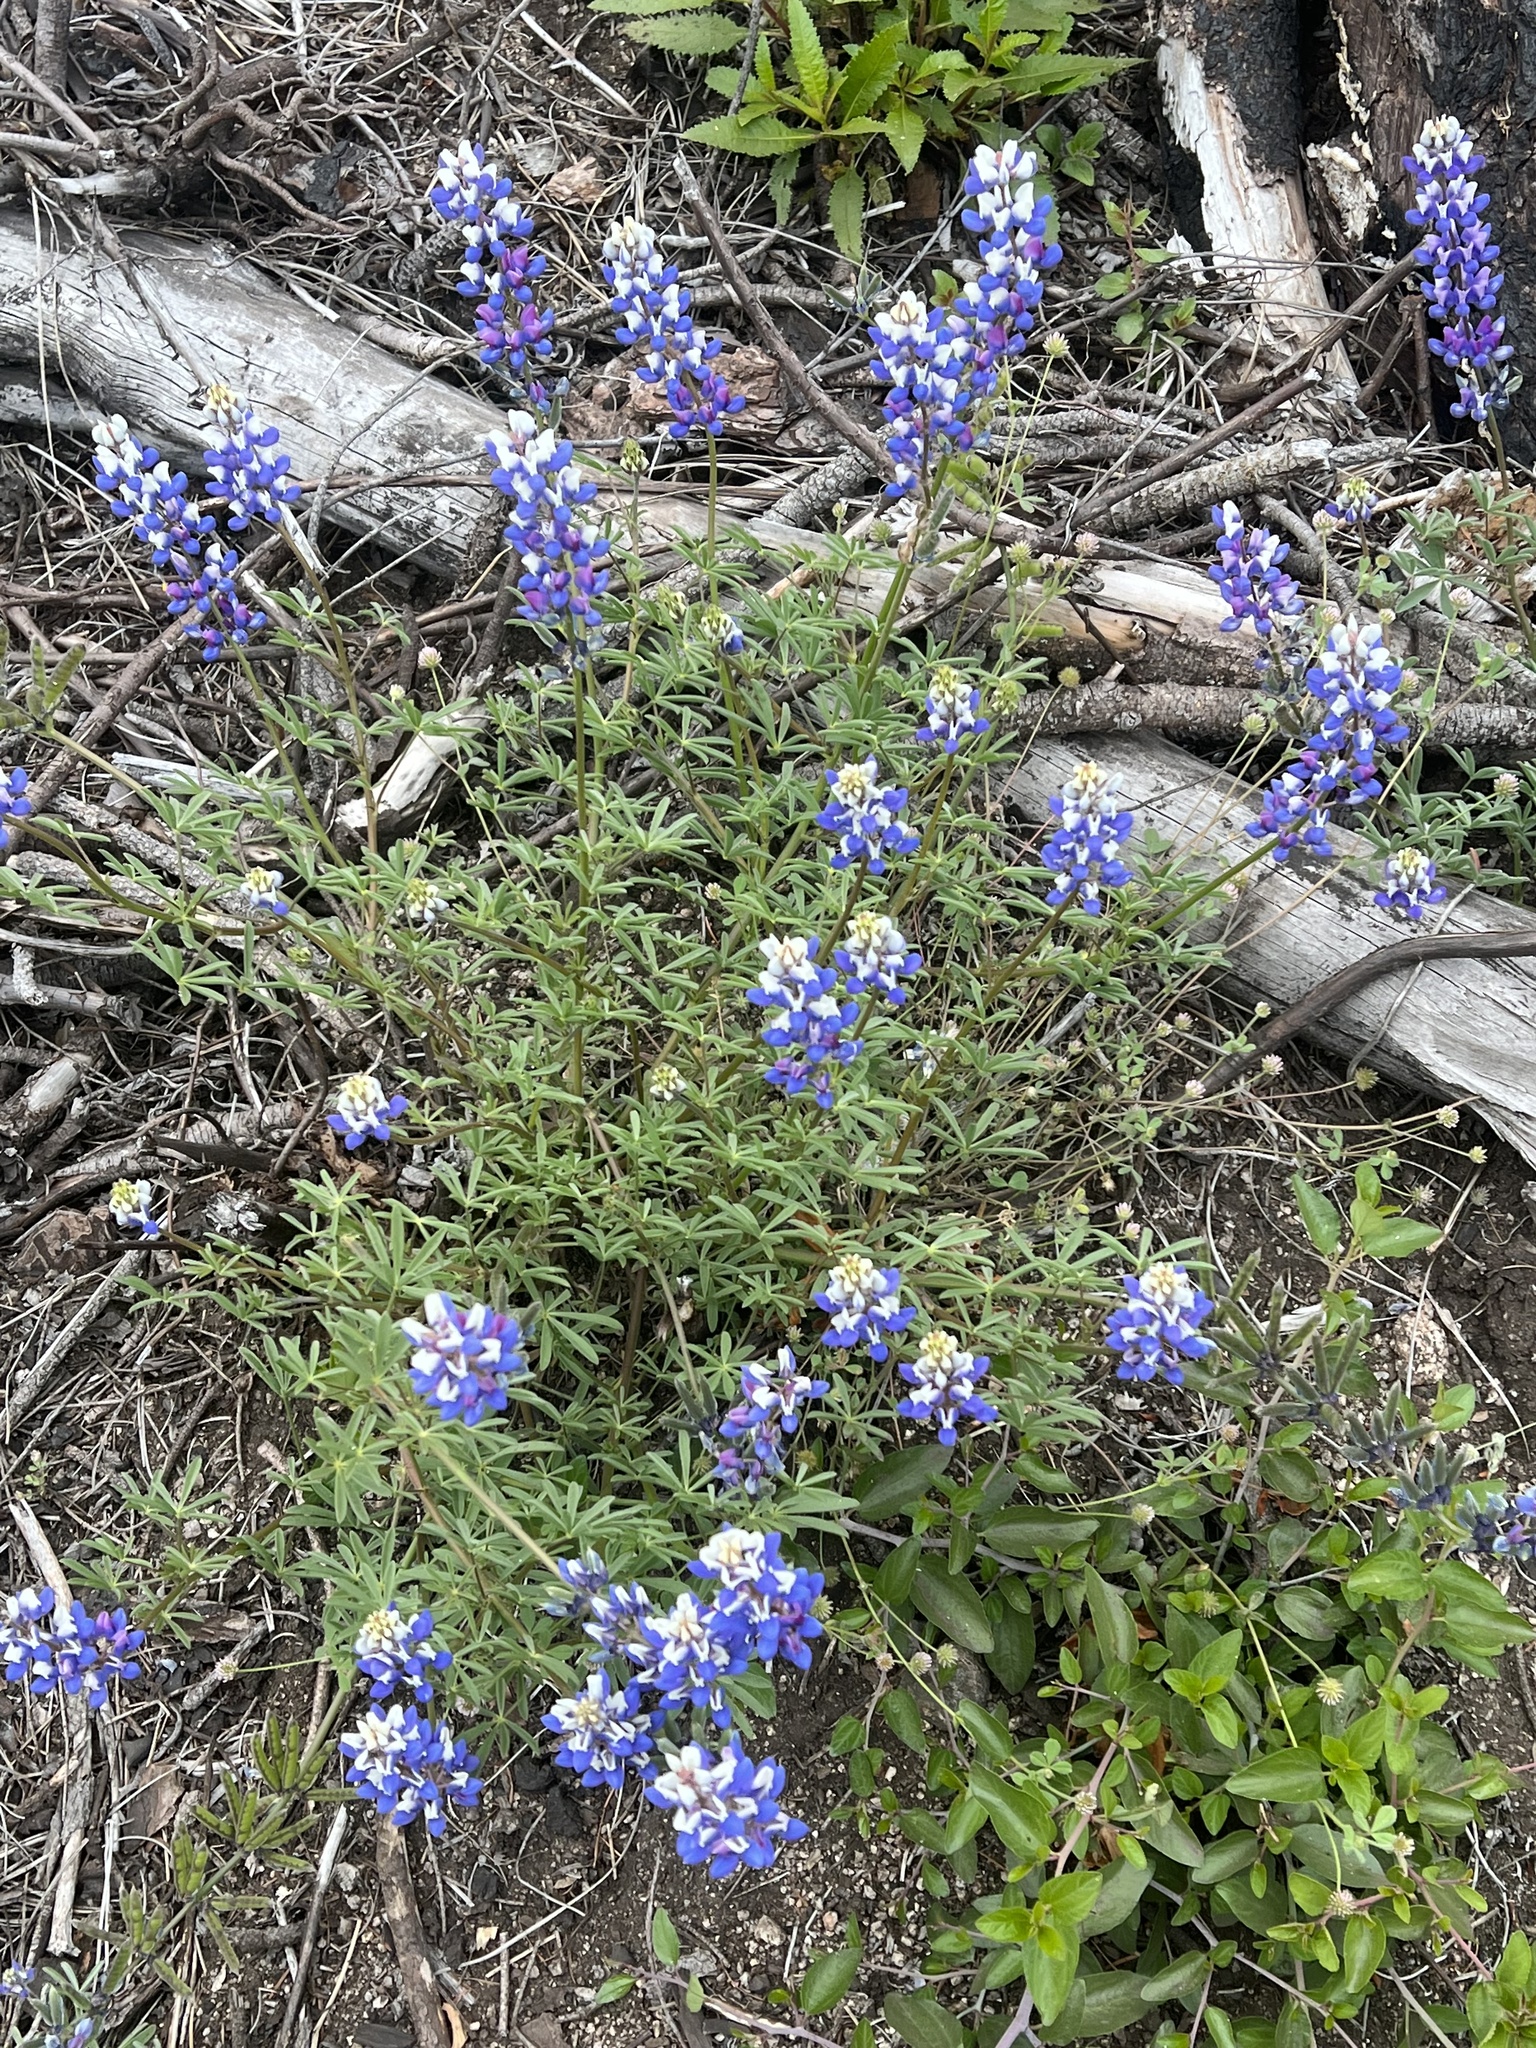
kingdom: Plantae
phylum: Tracheophyta
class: Magnoliopsida
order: Fabales
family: Fabaceae
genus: Lupinus
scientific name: Lupinus nanus
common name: Orean blue lupin
